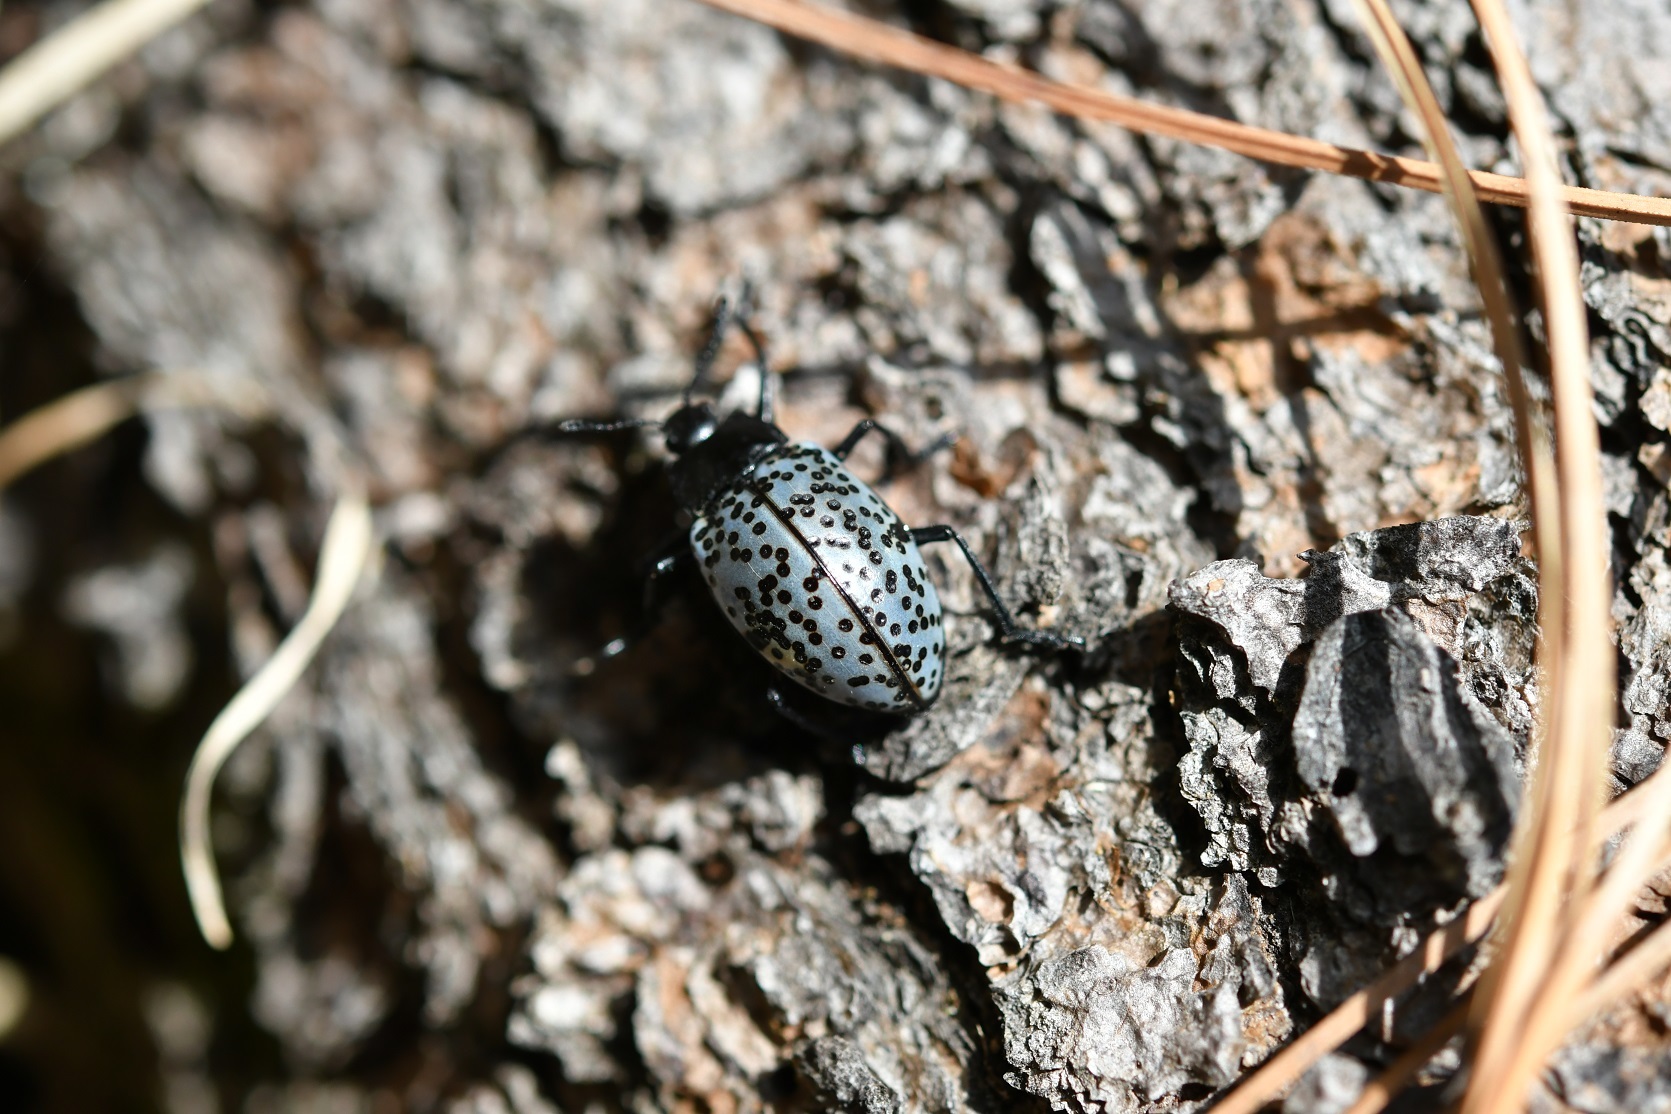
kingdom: Animalia
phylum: Arthropoda
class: Insecta
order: Coleoptera
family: Erotylidae
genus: Gibbifer
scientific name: Gibbifer californicus
